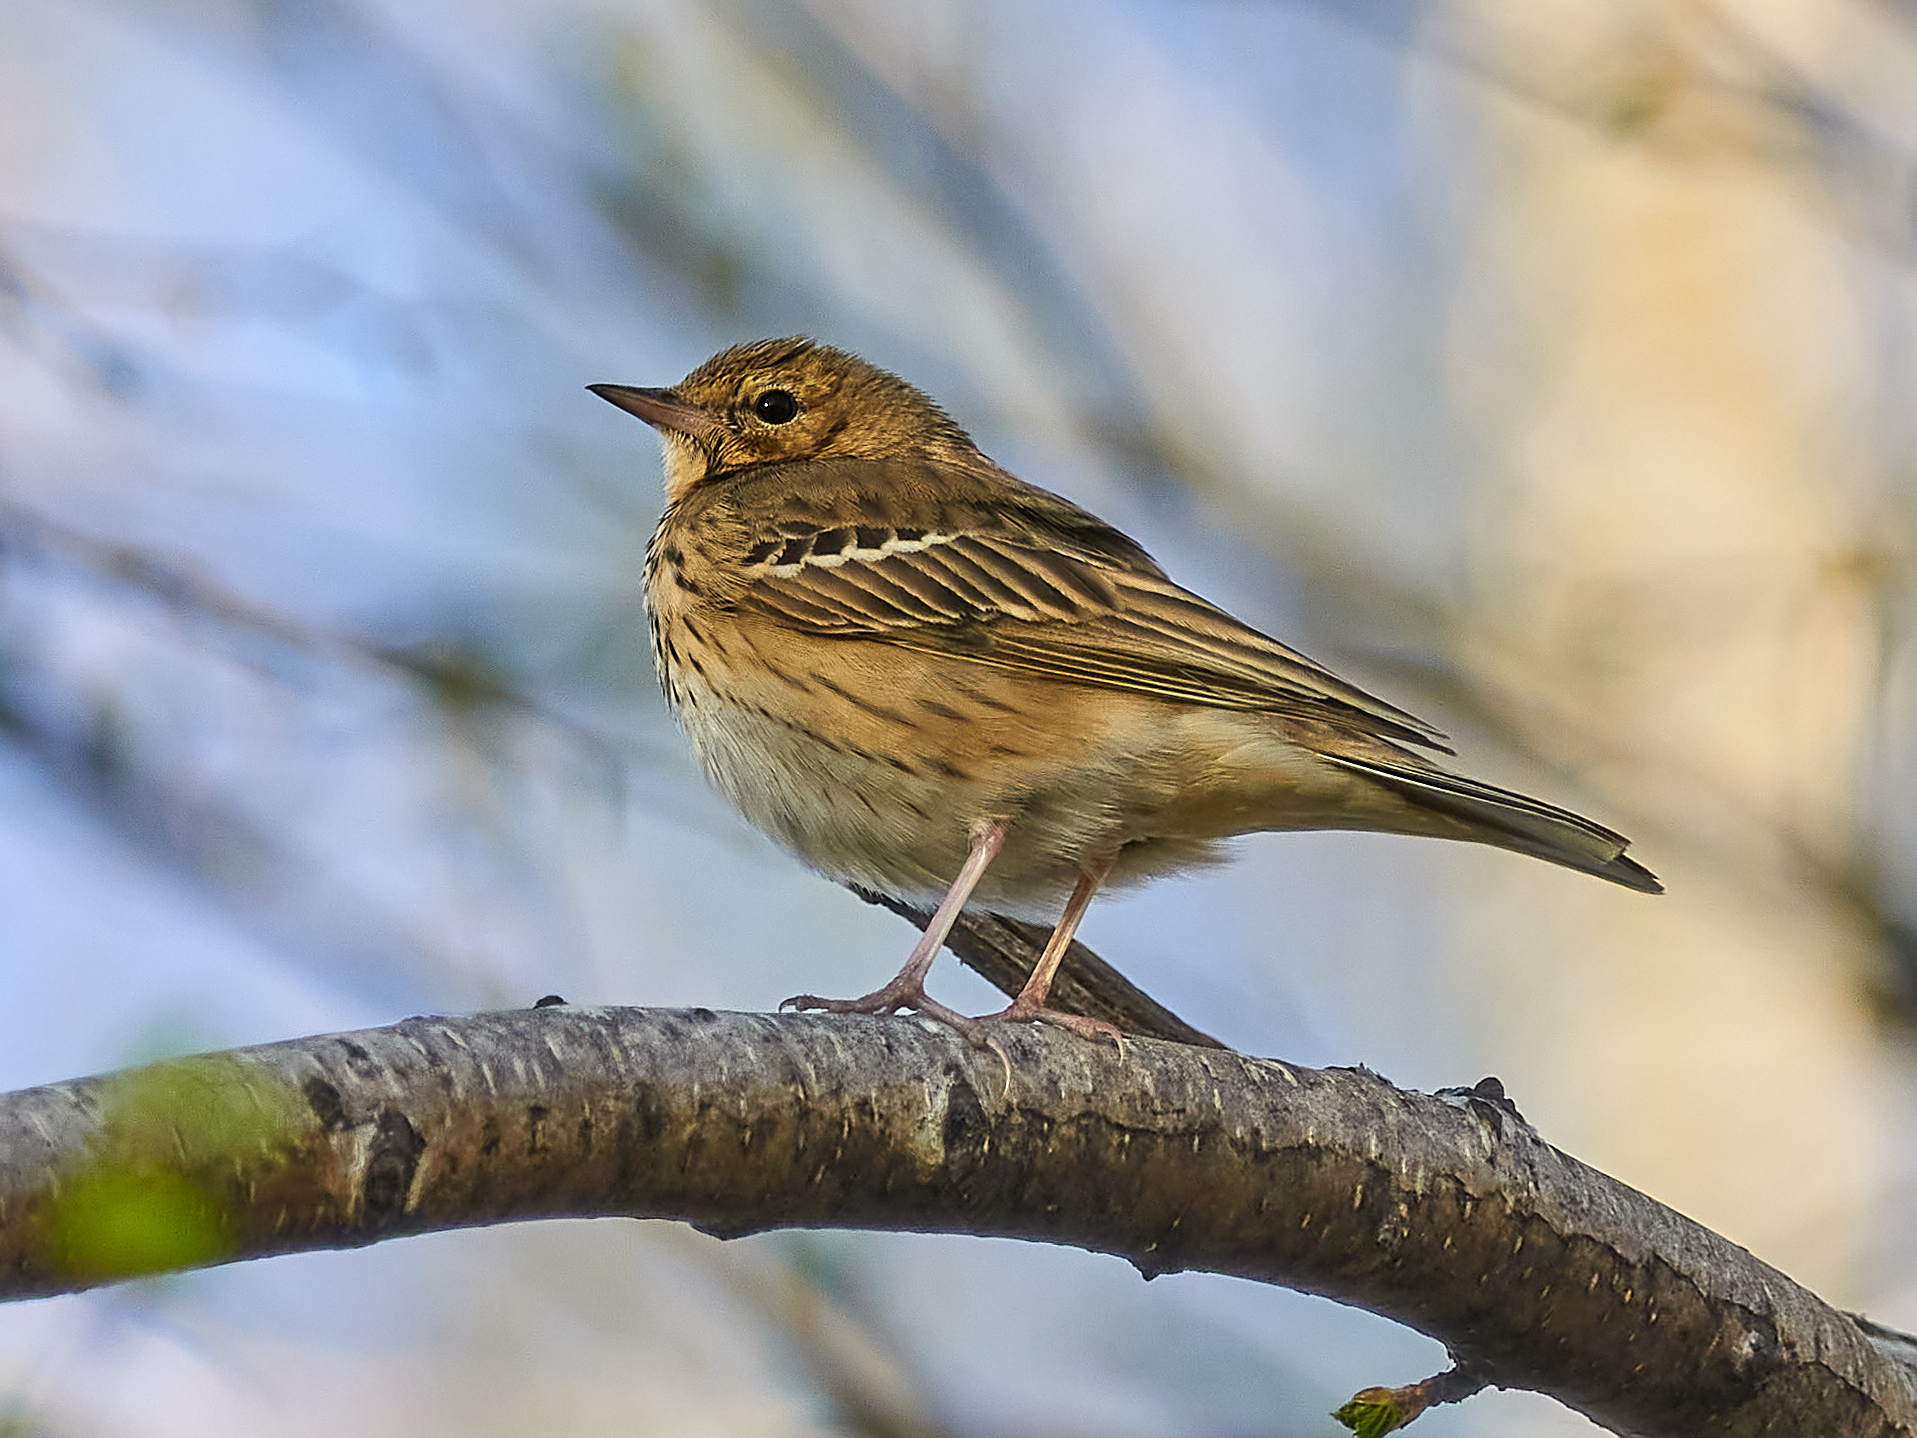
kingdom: Animalia
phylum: Chordata
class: Aves
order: Passeriformes
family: Motacillidae
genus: Anthus
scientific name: Anthus trivialis
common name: Tree pipit
